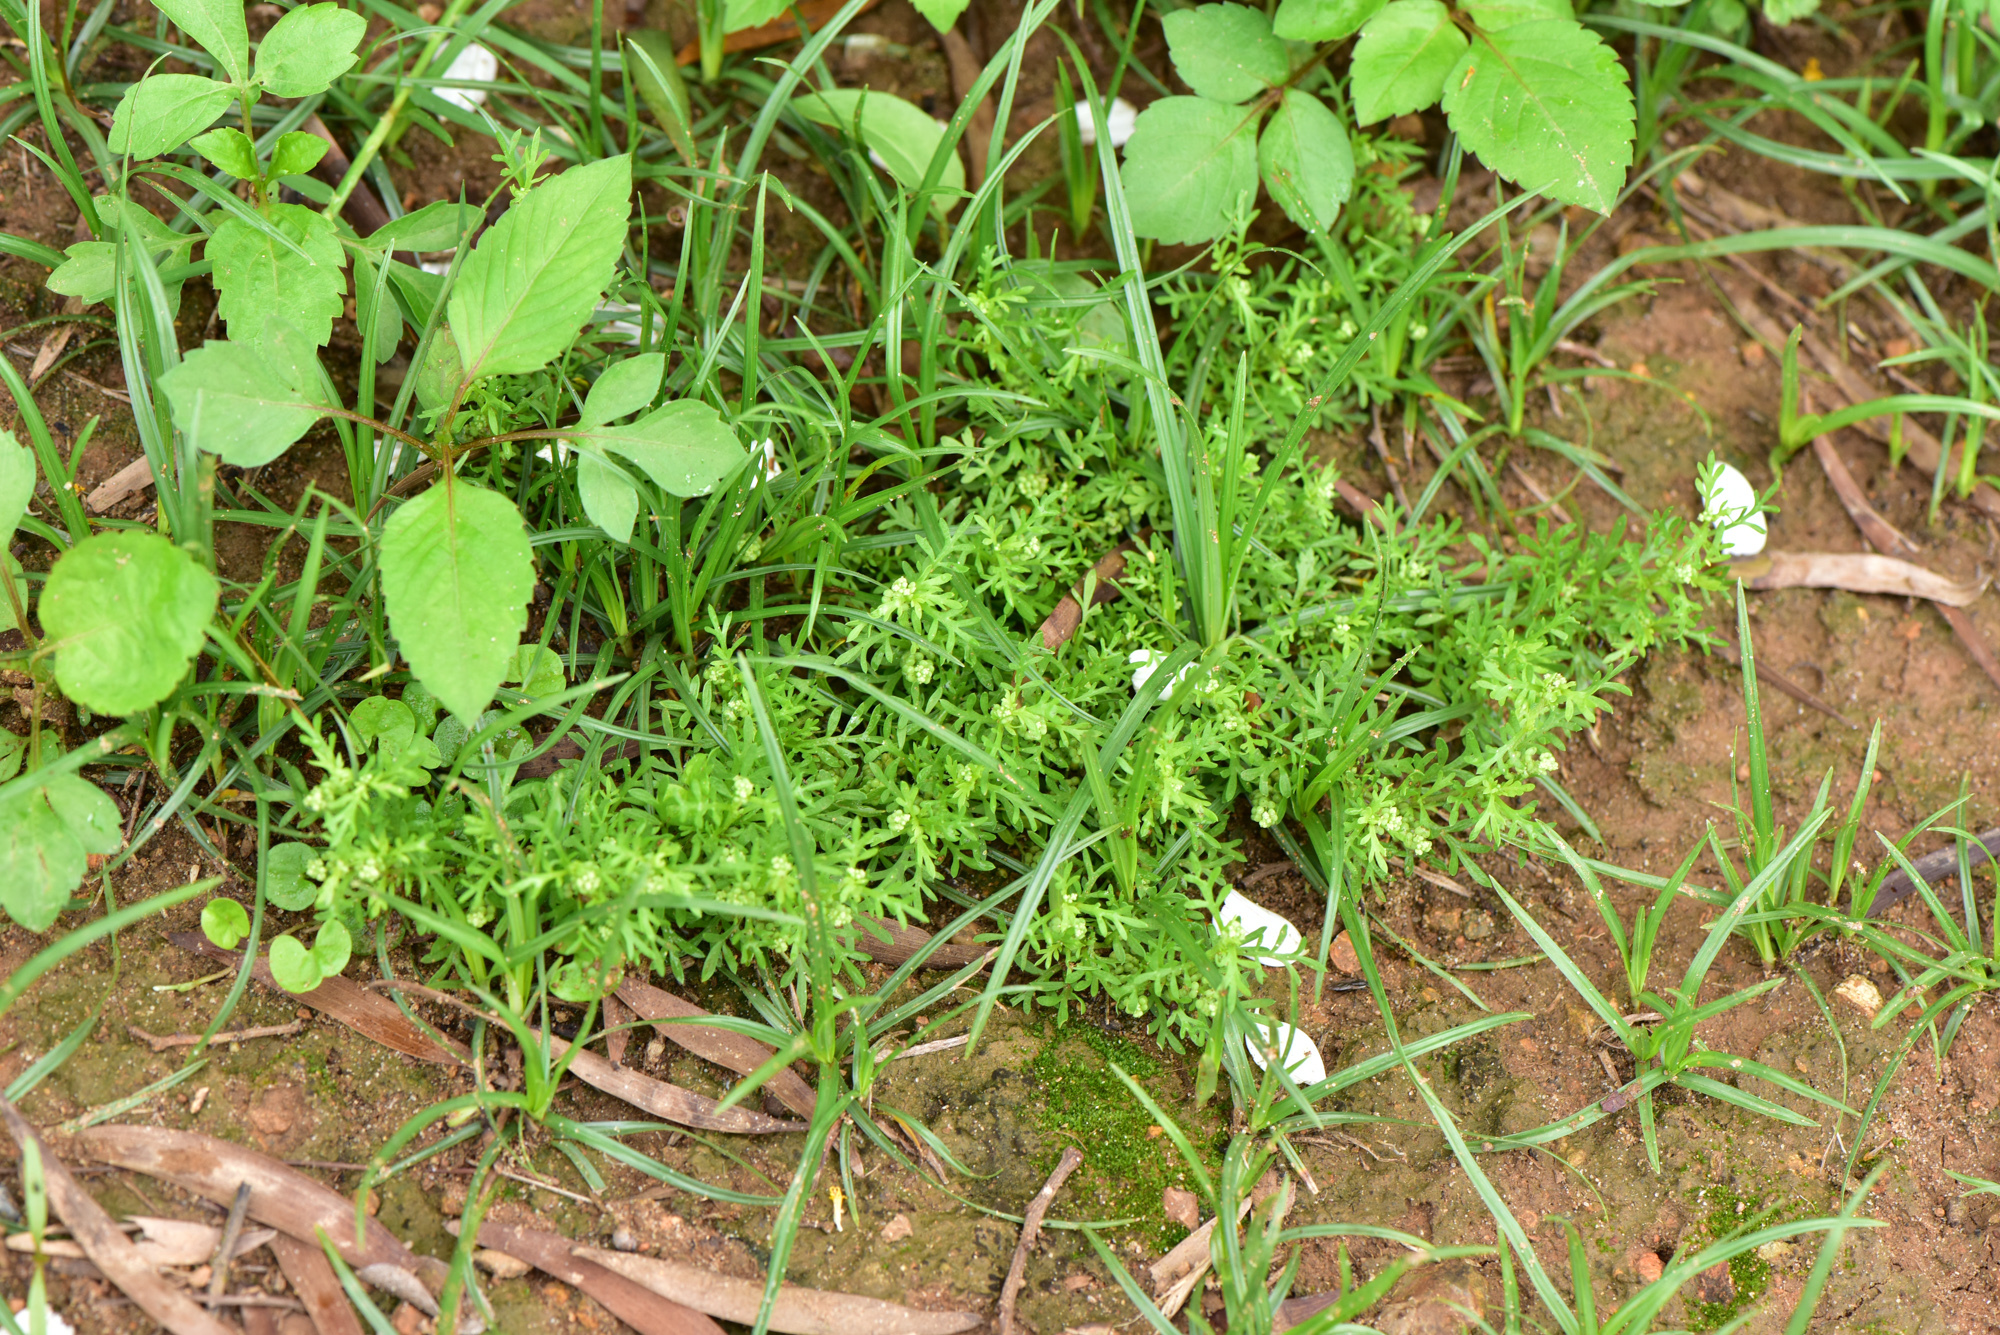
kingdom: Plantae
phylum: Tracheophyta
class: Magnoliopsida
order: Brassicales
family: Brassicaceae
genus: Lepidium
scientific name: Lepidium didymum
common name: Lesser swinecress
